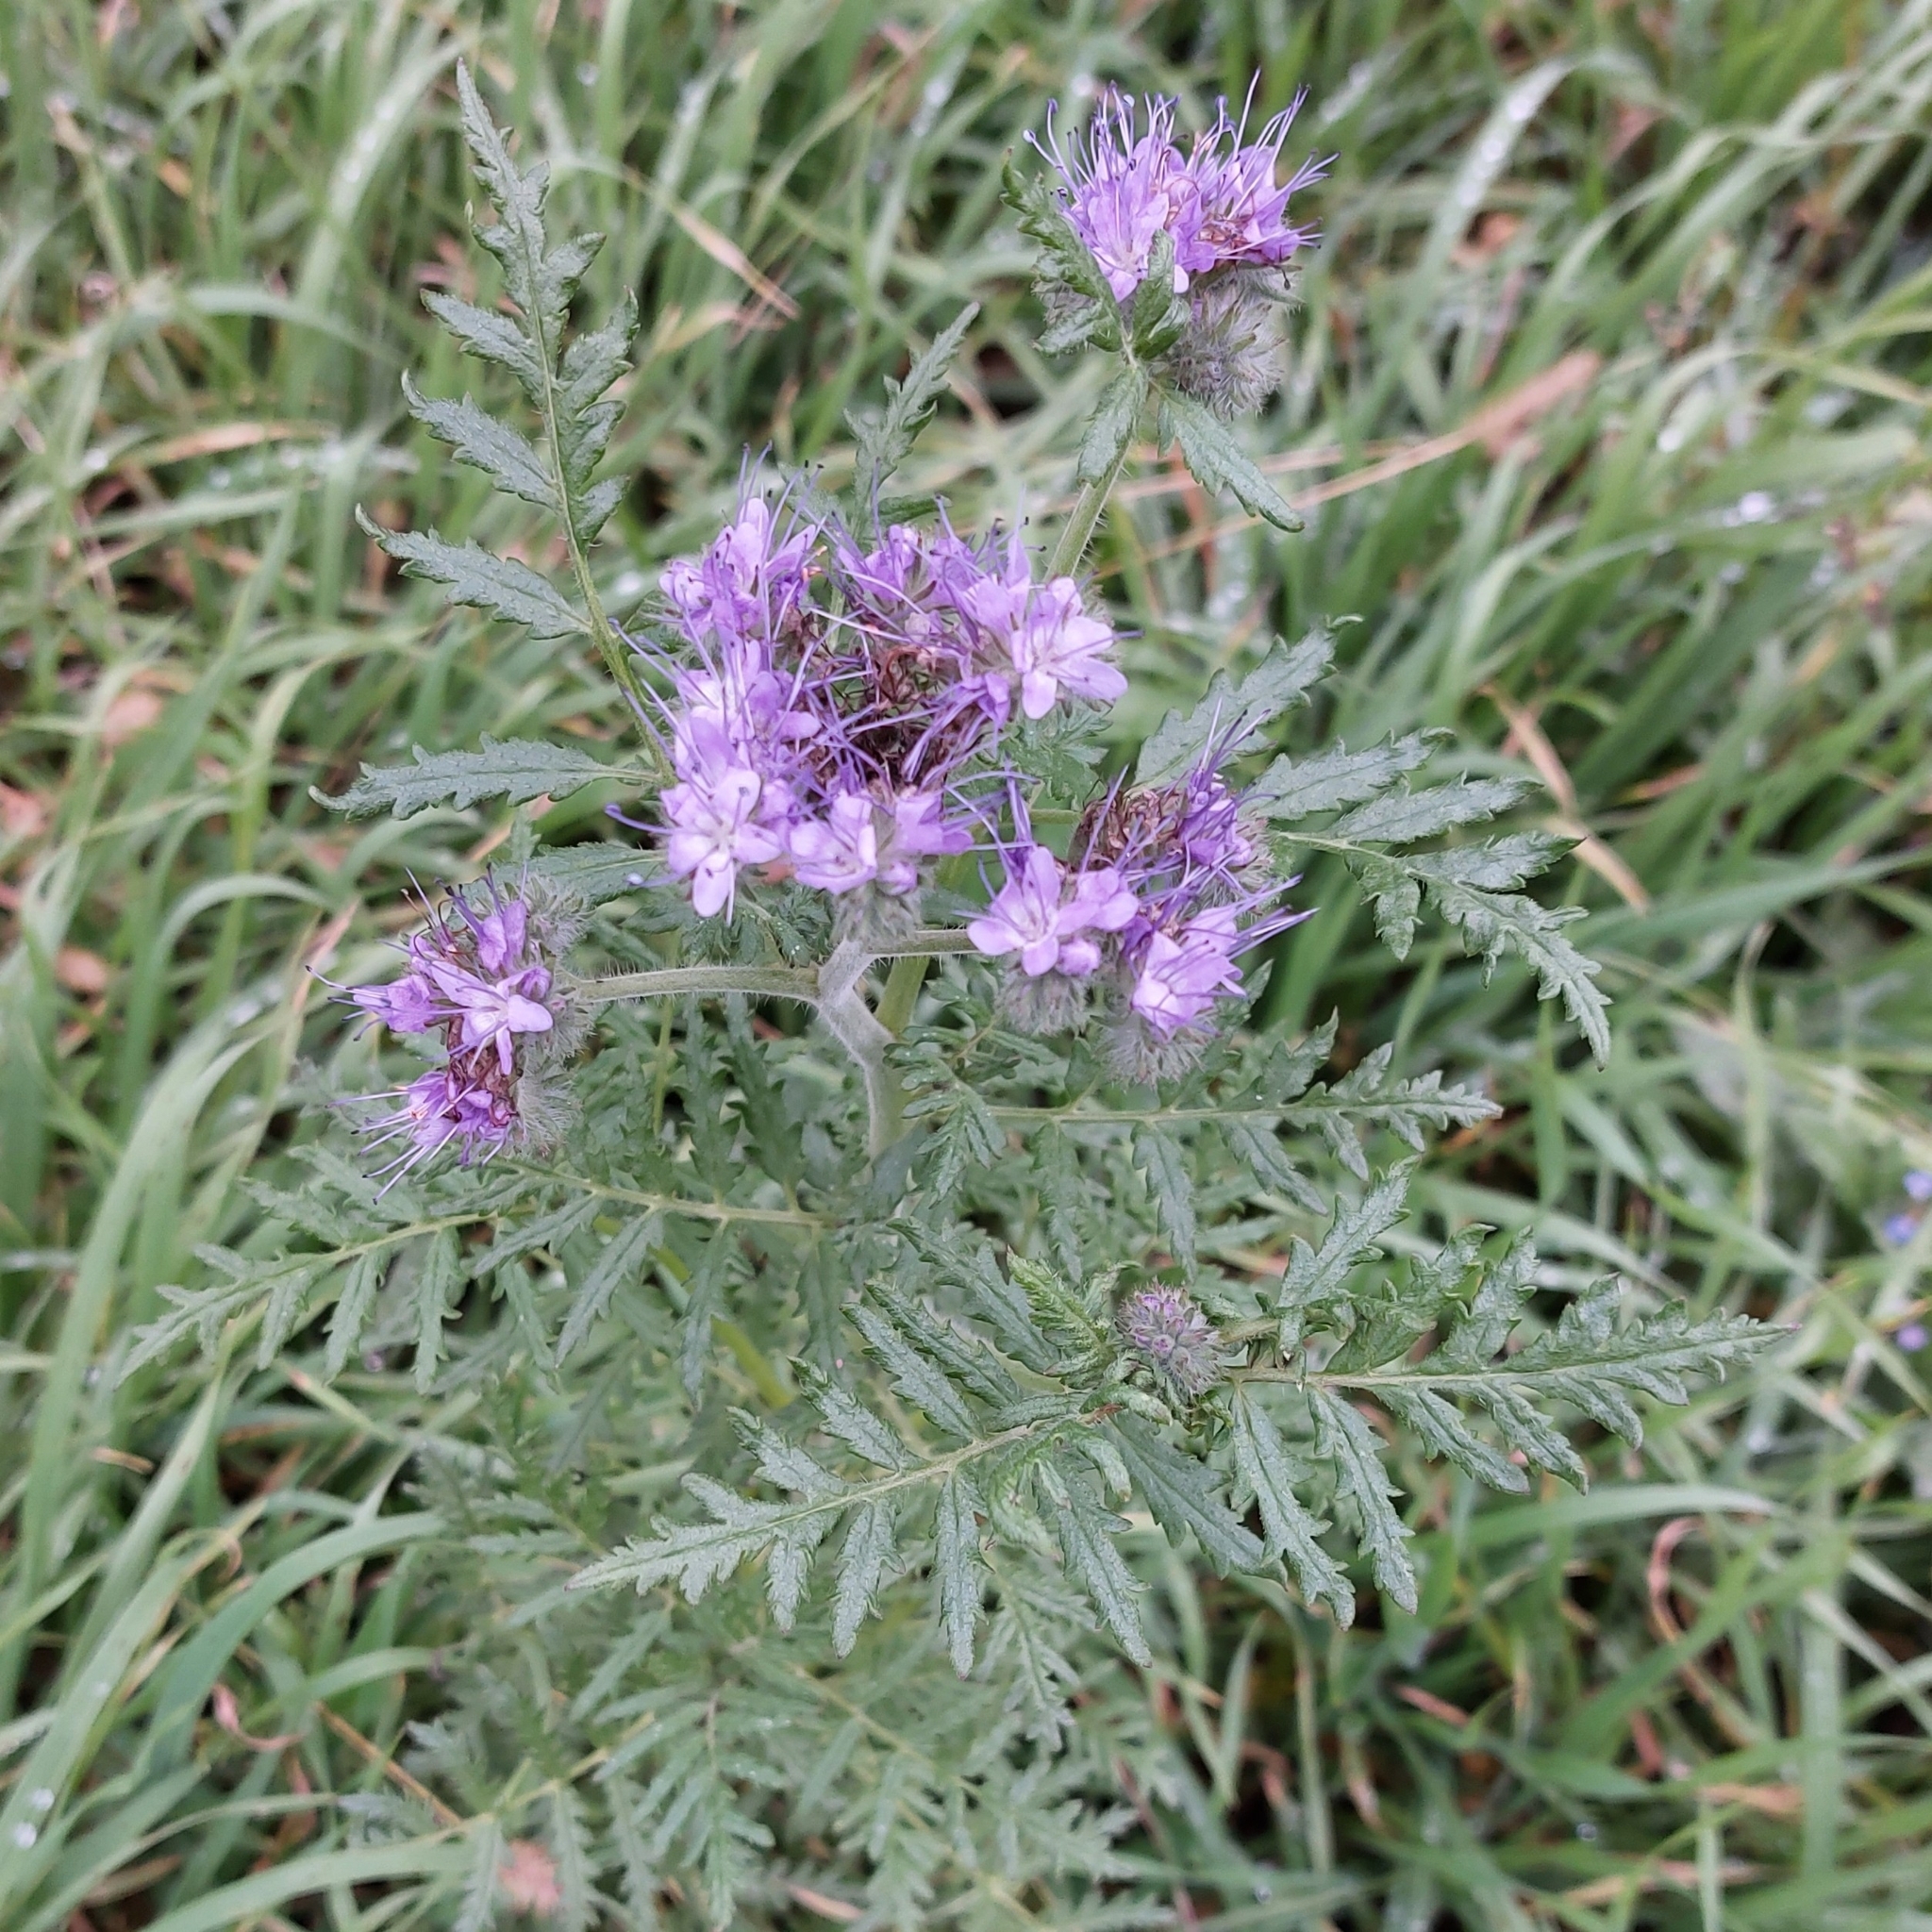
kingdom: Plantae
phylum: Tracheophyta
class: Magnoliopsida
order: Boraginales
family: Hydrophyllaceae
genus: Phacelia
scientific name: Phacelia tanacetifolia
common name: Phacelia
